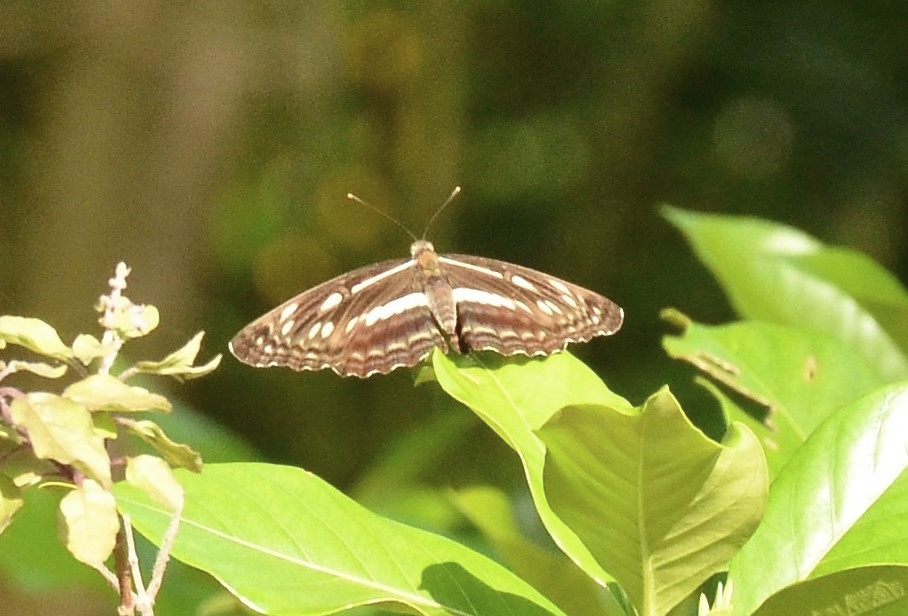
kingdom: Animalia
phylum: Arthropoda
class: Insecta
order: Lepidoptera
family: Nymphalidae
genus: Neptis
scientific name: Neptis jumbah
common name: Chestnut-streaked sailer
